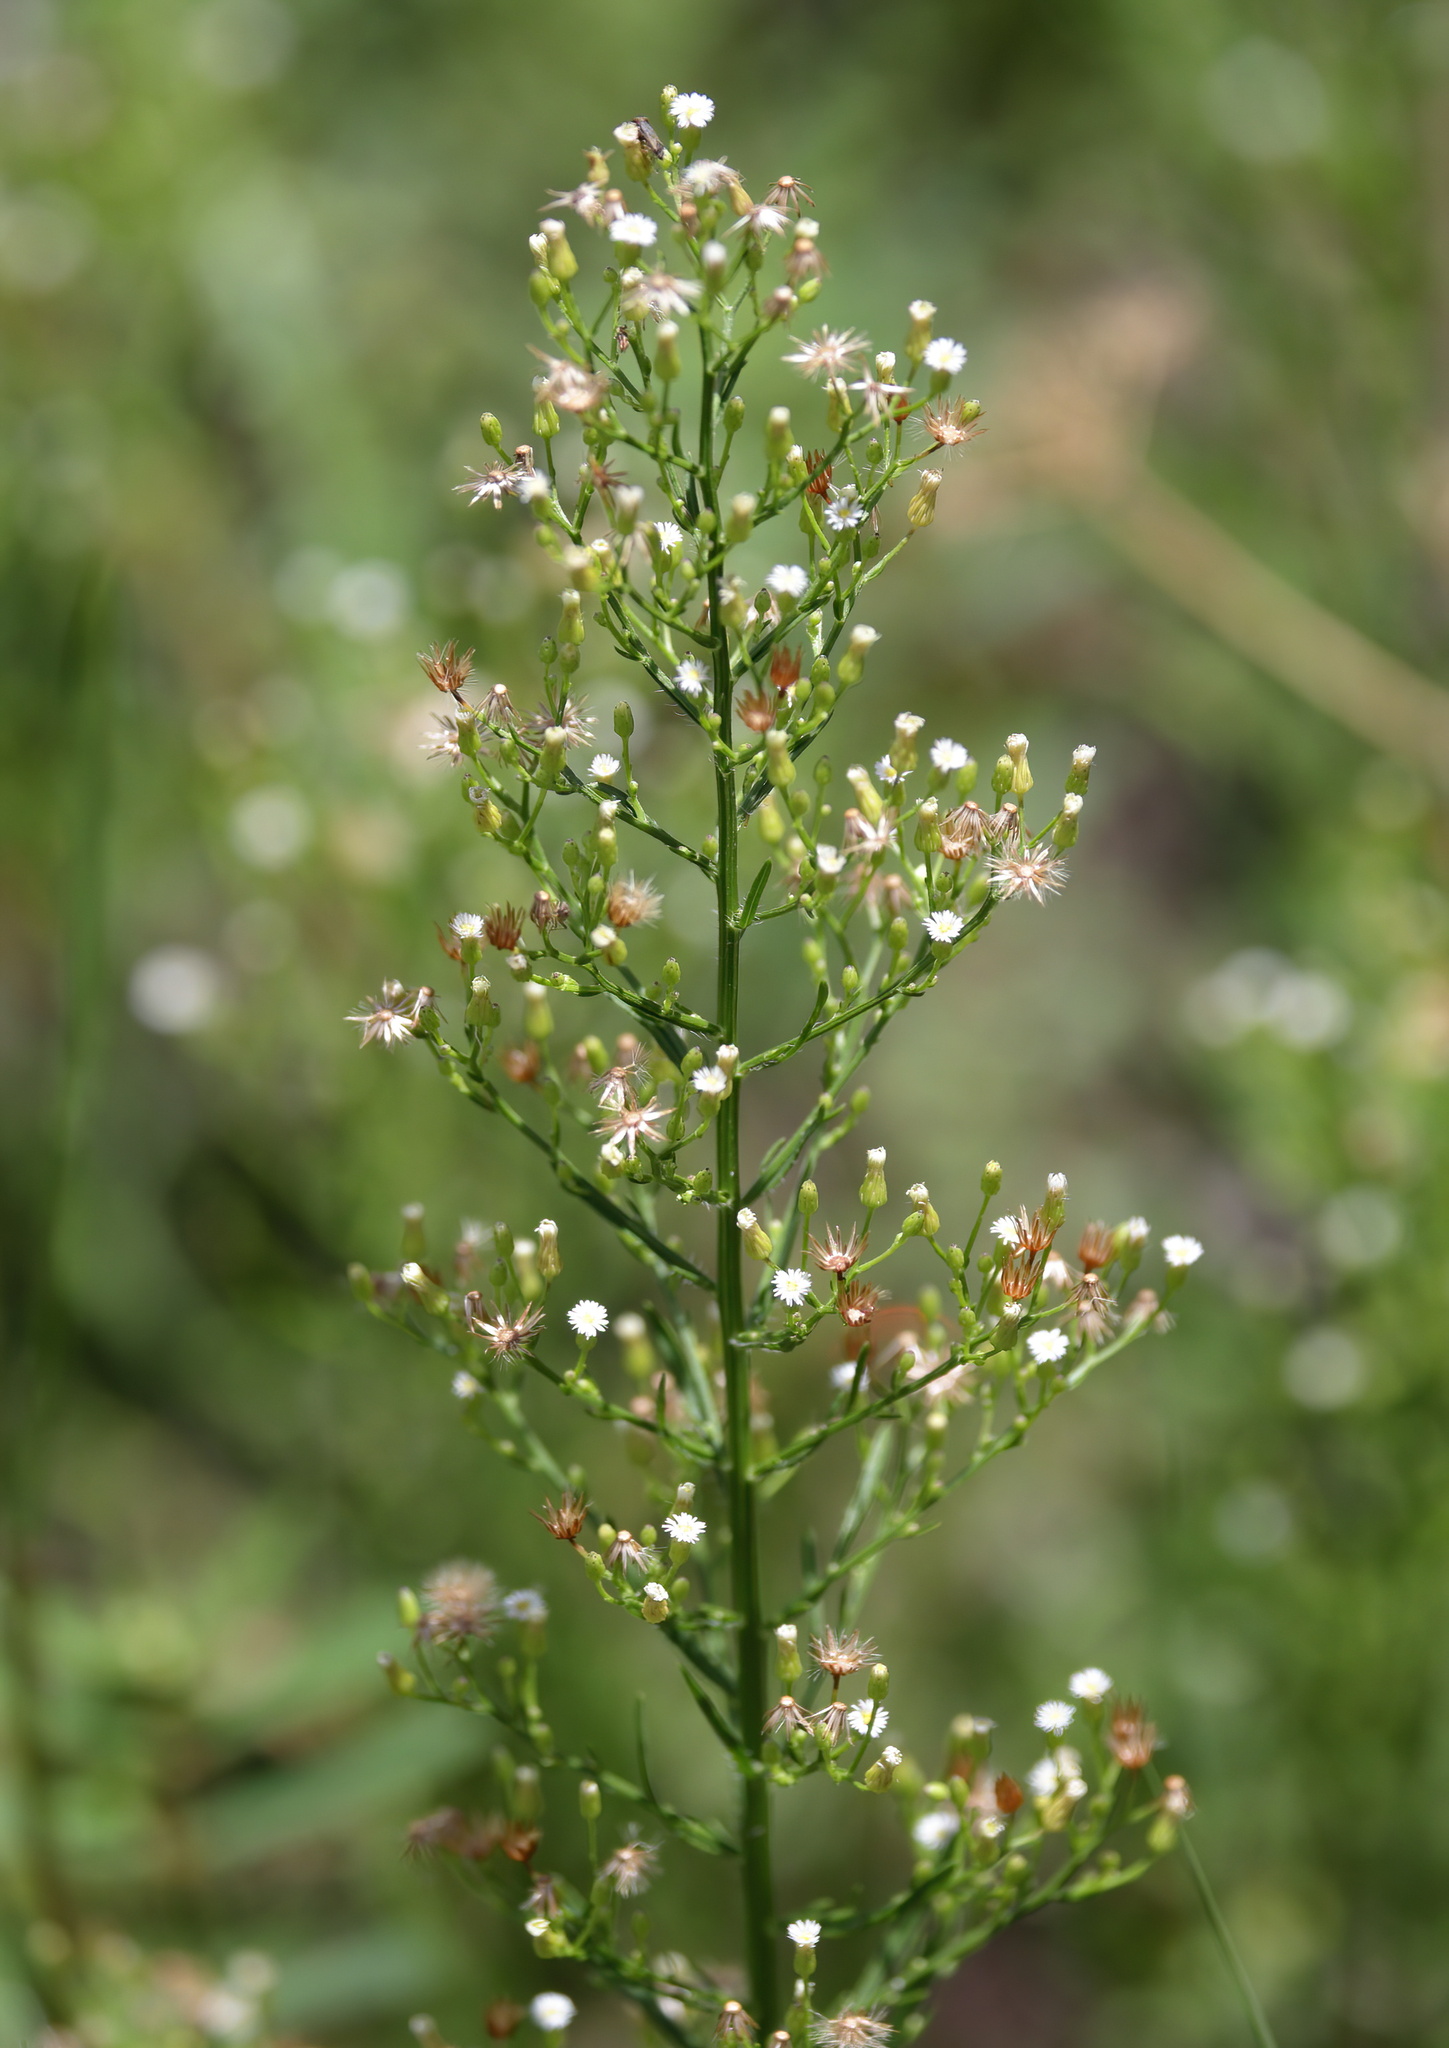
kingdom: Plantae
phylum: Tracheophyta
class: Magnoliopsida
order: Asterales
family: Asteraceae
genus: Erigeron
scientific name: Erigeron canadensis
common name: Canadian fleabane
